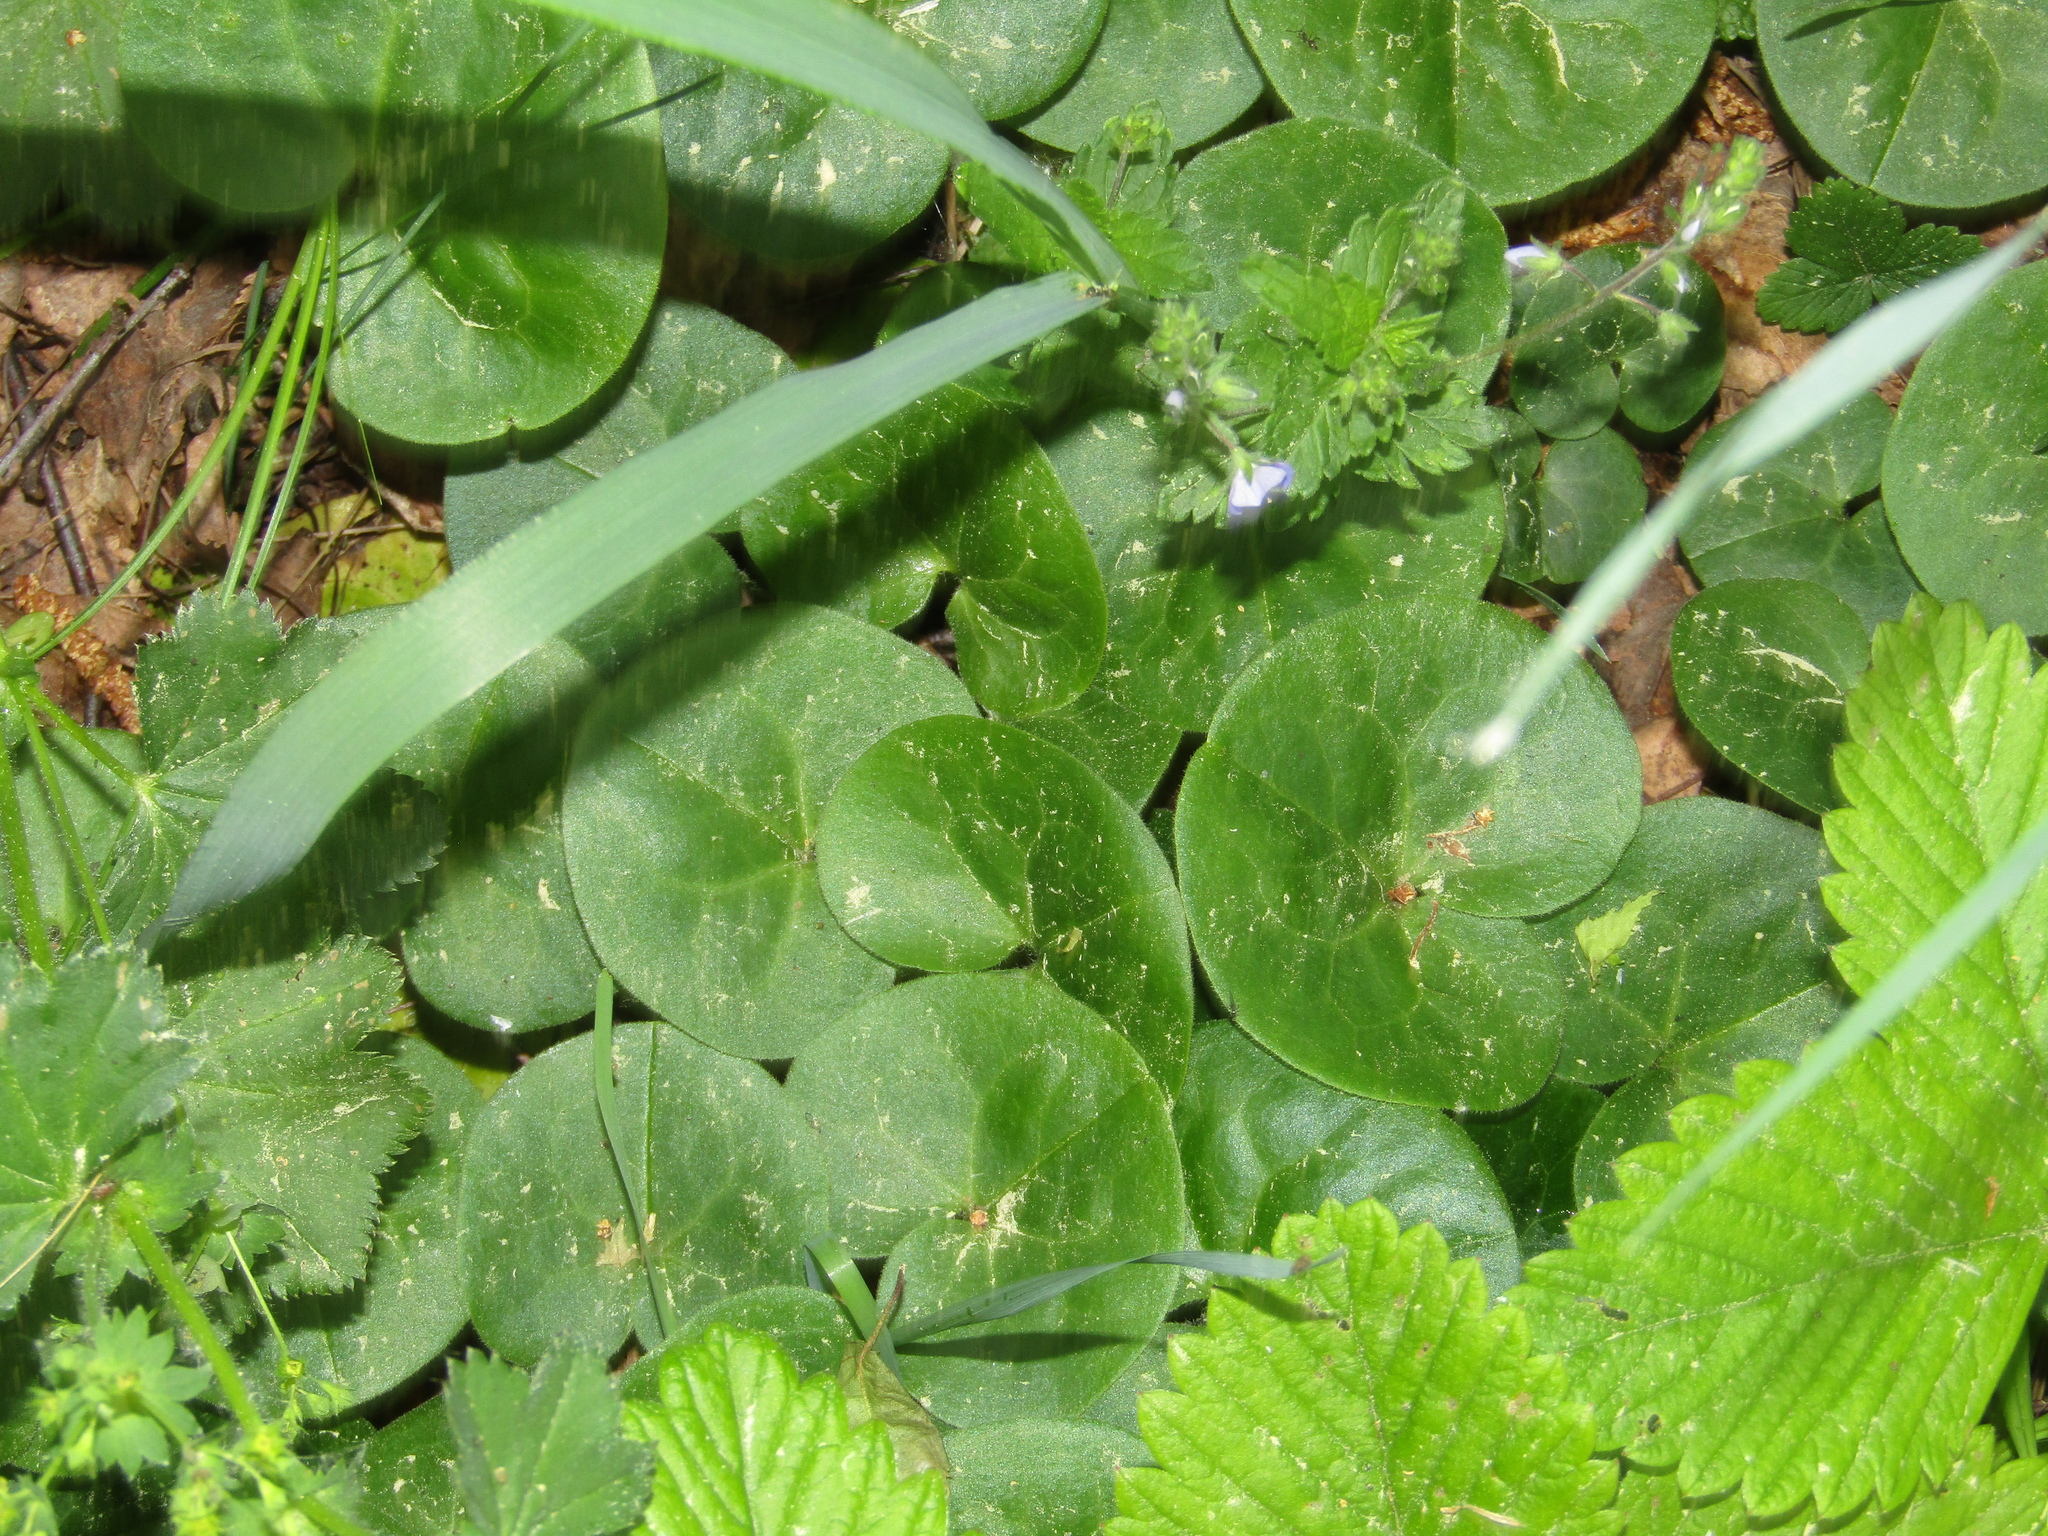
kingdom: Plantae
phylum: Tracheophyta
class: Magnoliopsida
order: Piperales
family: Aristolochiaceae
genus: Asarum
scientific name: Asarum europaeum
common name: Asarabacca
